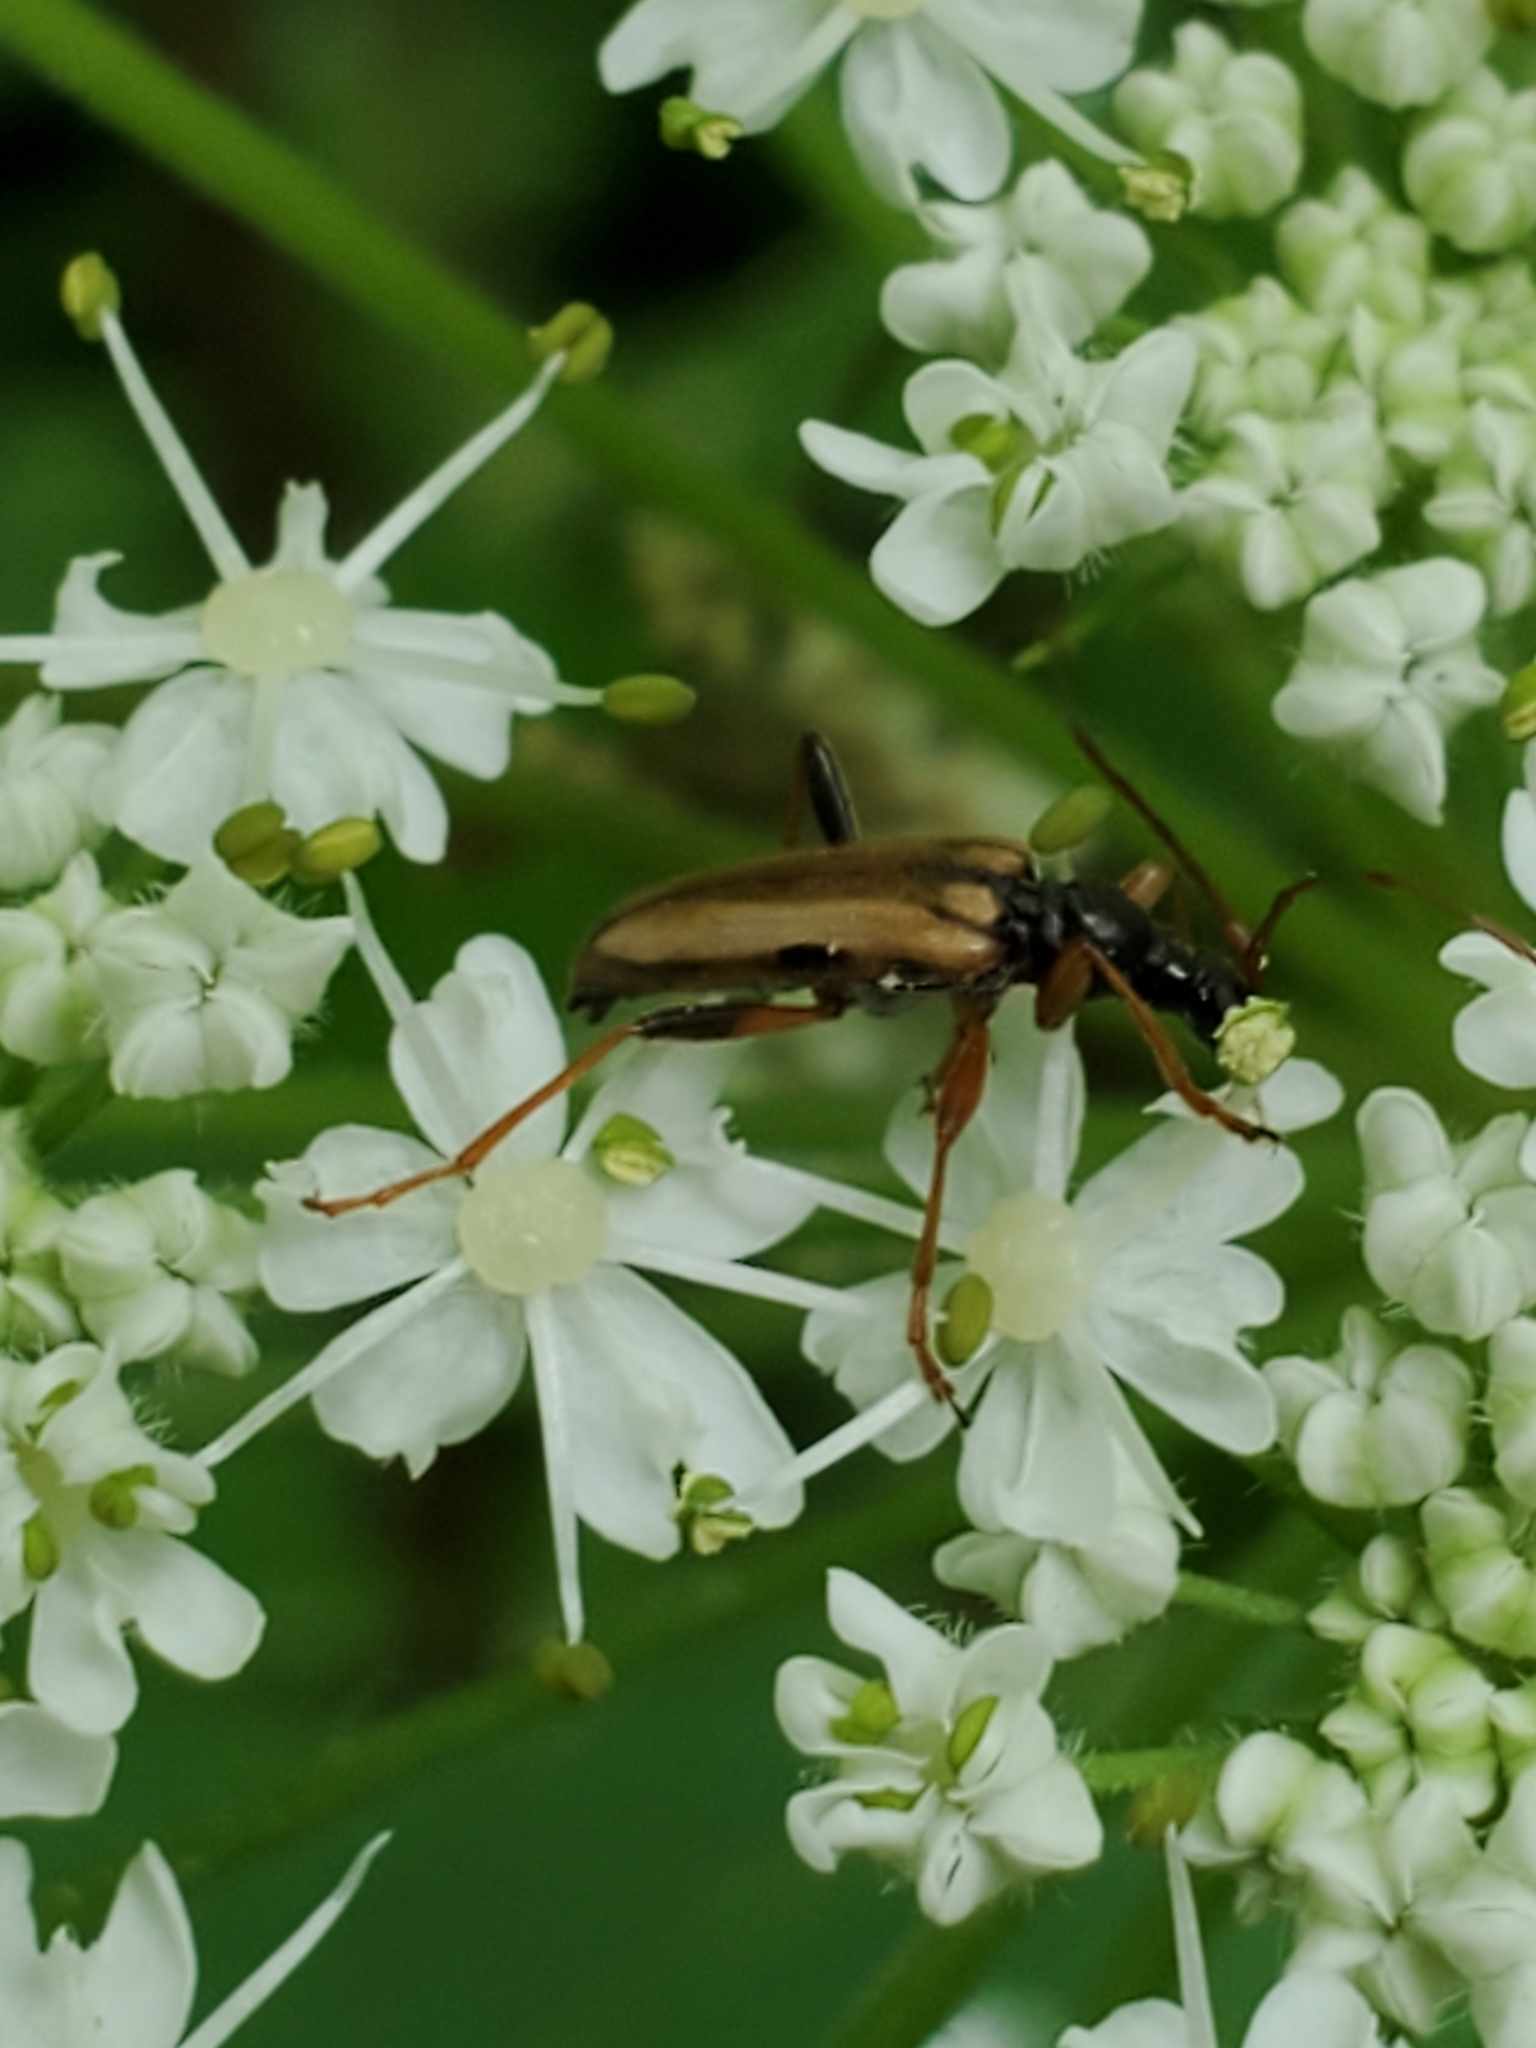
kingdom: Animalia
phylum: Arthropoda
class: Insecta
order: Coleoptera
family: Cerambycidae
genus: Pidonia
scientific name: Pidonia scripta
